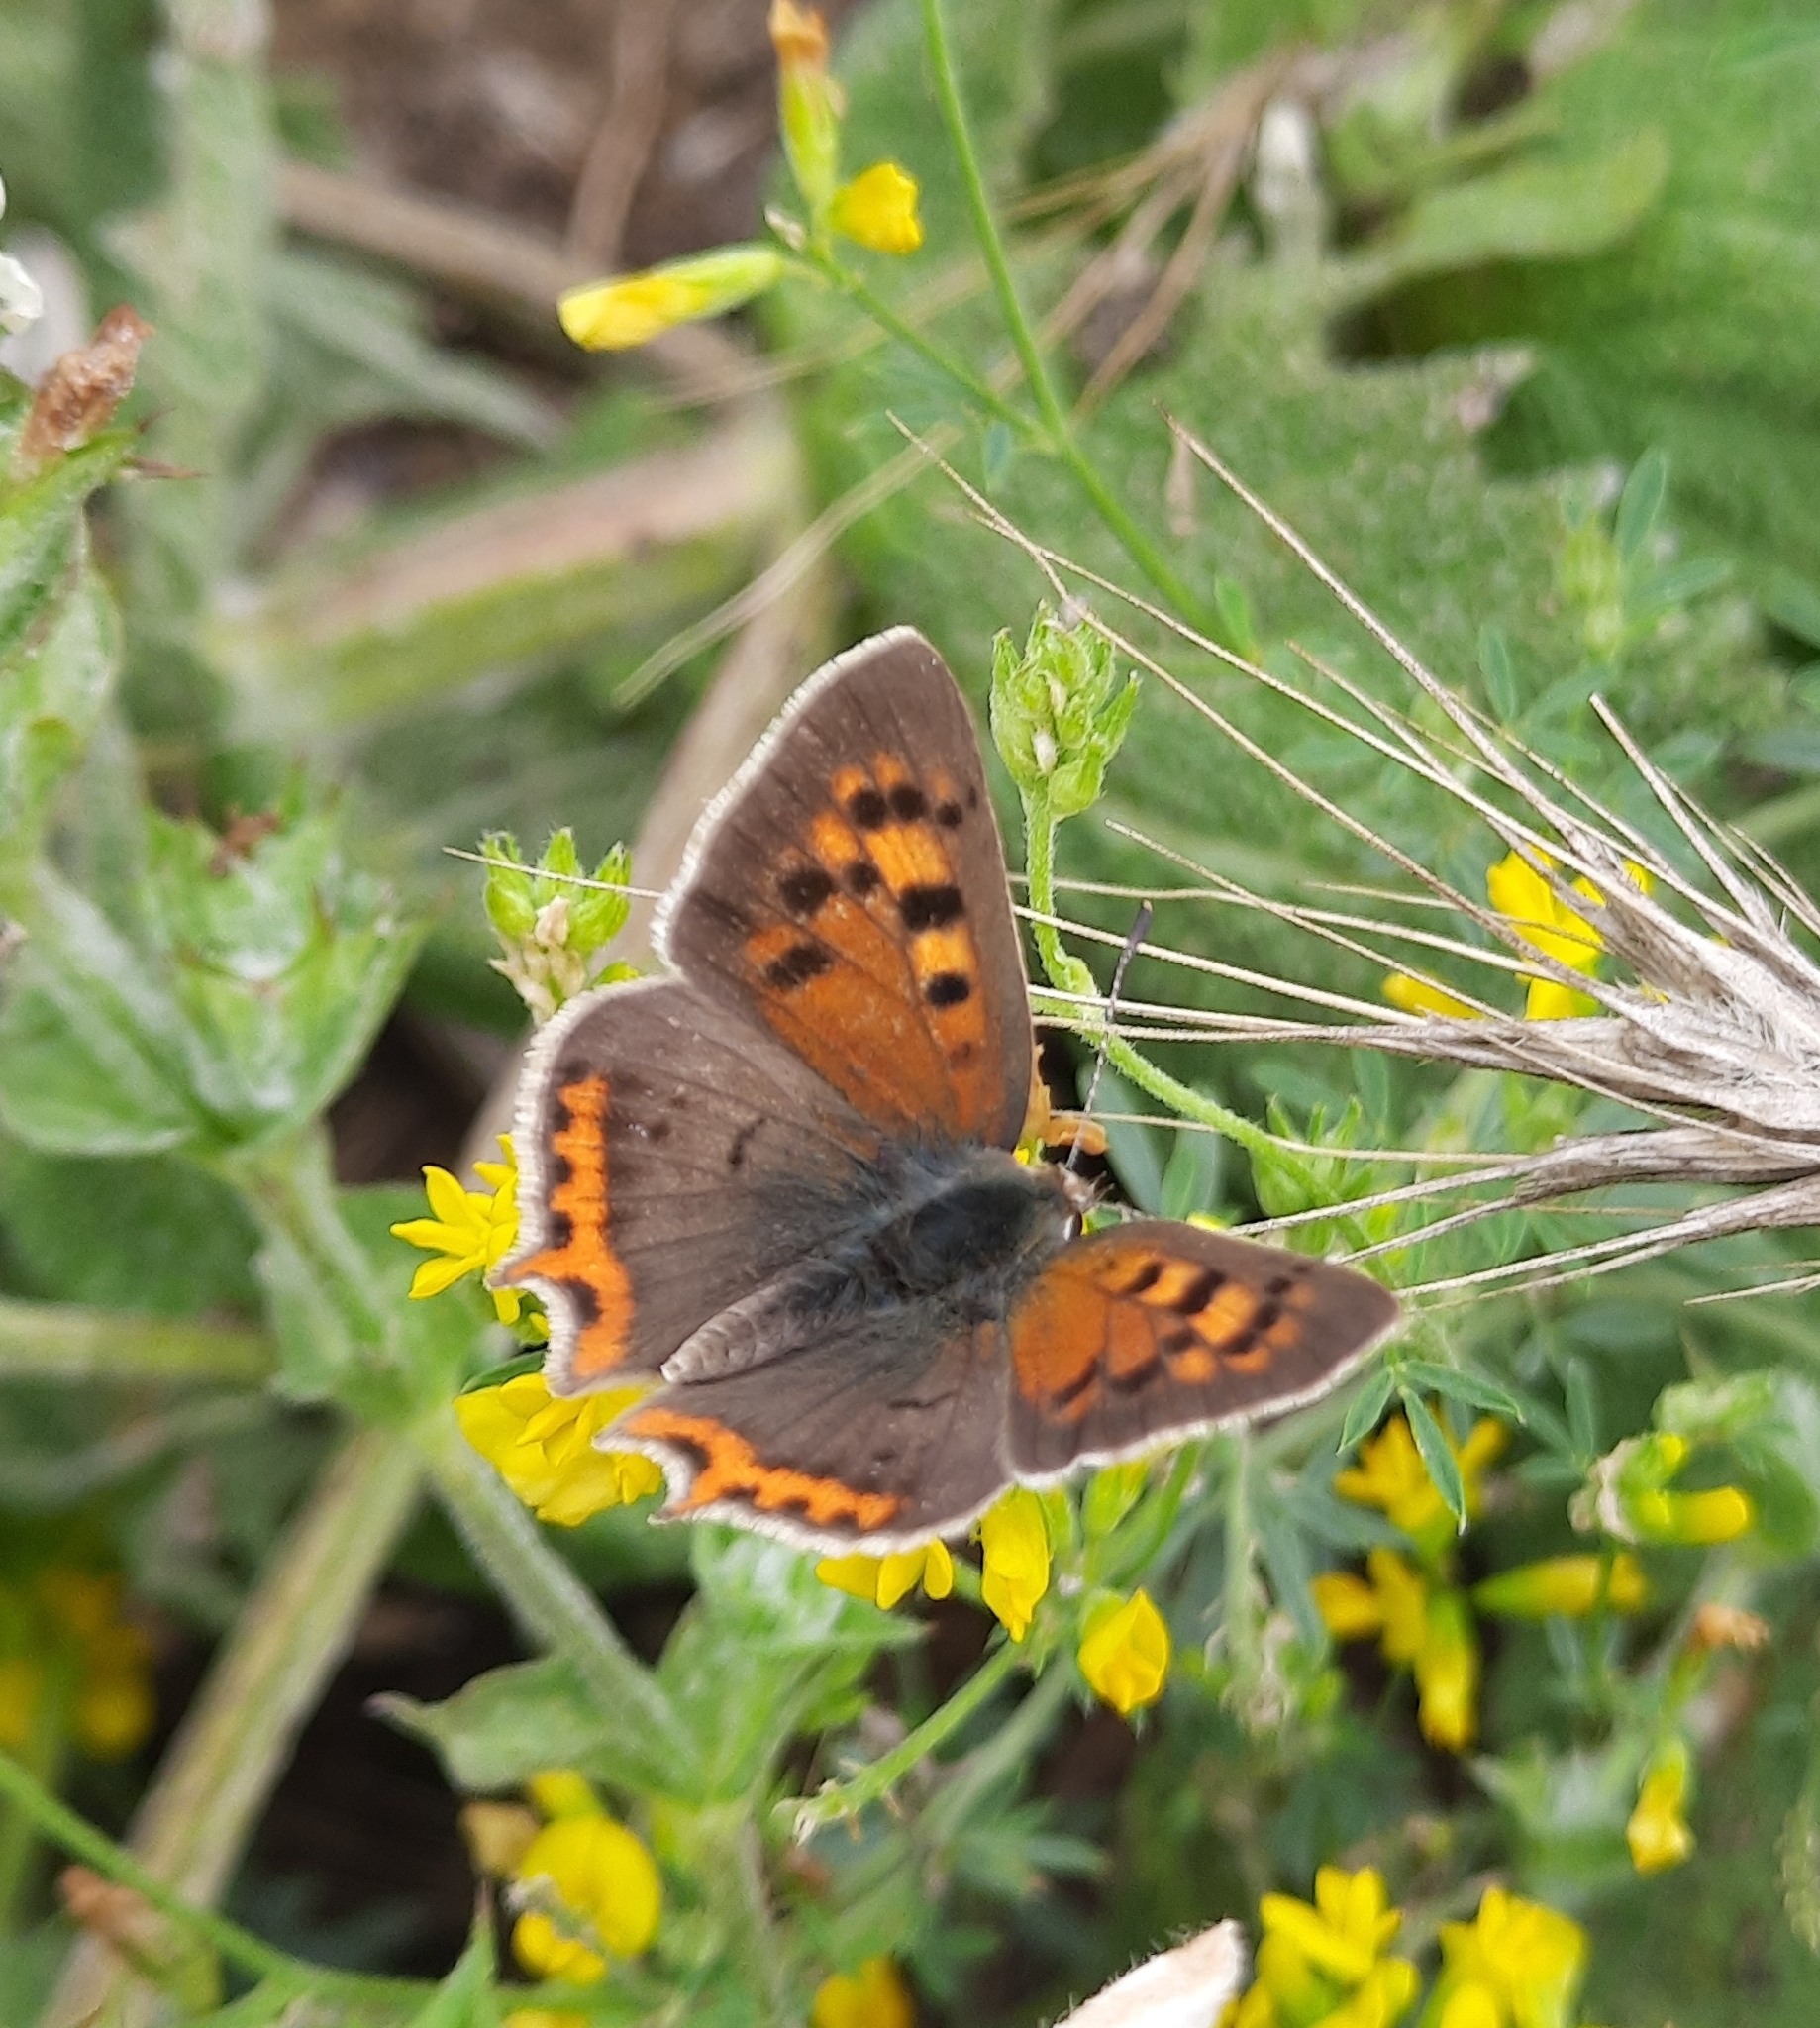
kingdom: Animalia
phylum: Arthropoda
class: Insecta
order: Lepidoptera
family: Lycaenidae
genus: Lycaena
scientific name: Lycaena phlaeas
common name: Small copper
